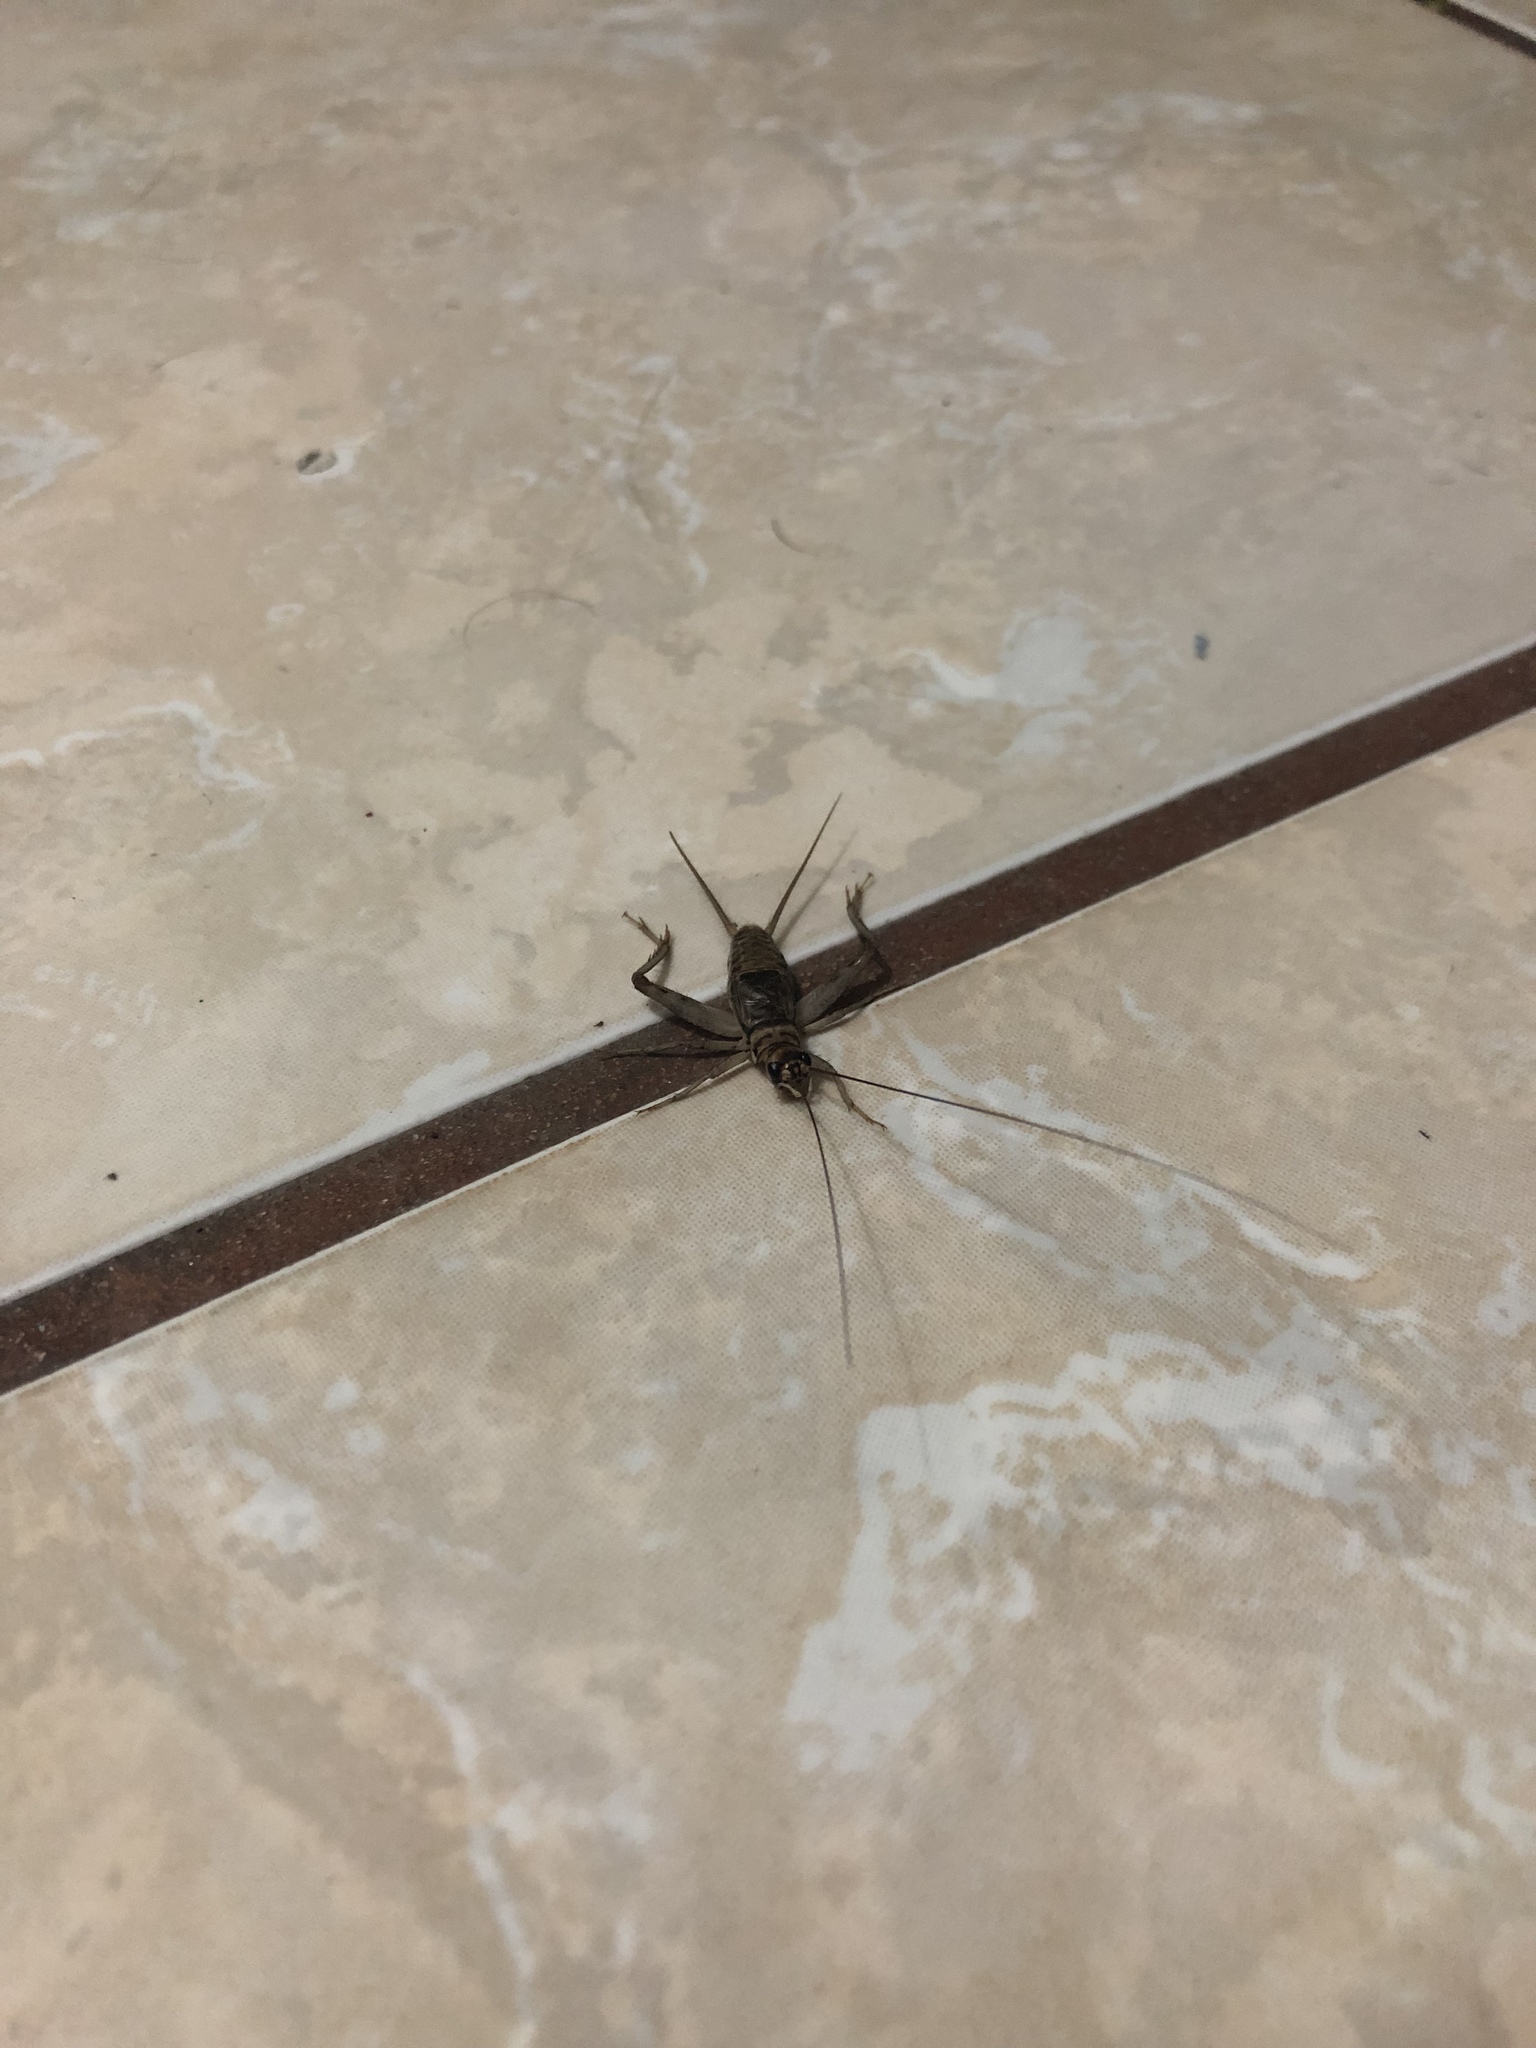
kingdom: Animalia
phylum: Arthropoda
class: Insecta
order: Orthoptera
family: Gryllidae
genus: Gryllodes
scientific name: Gryllodes sigillatus
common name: Tropical house cricket
